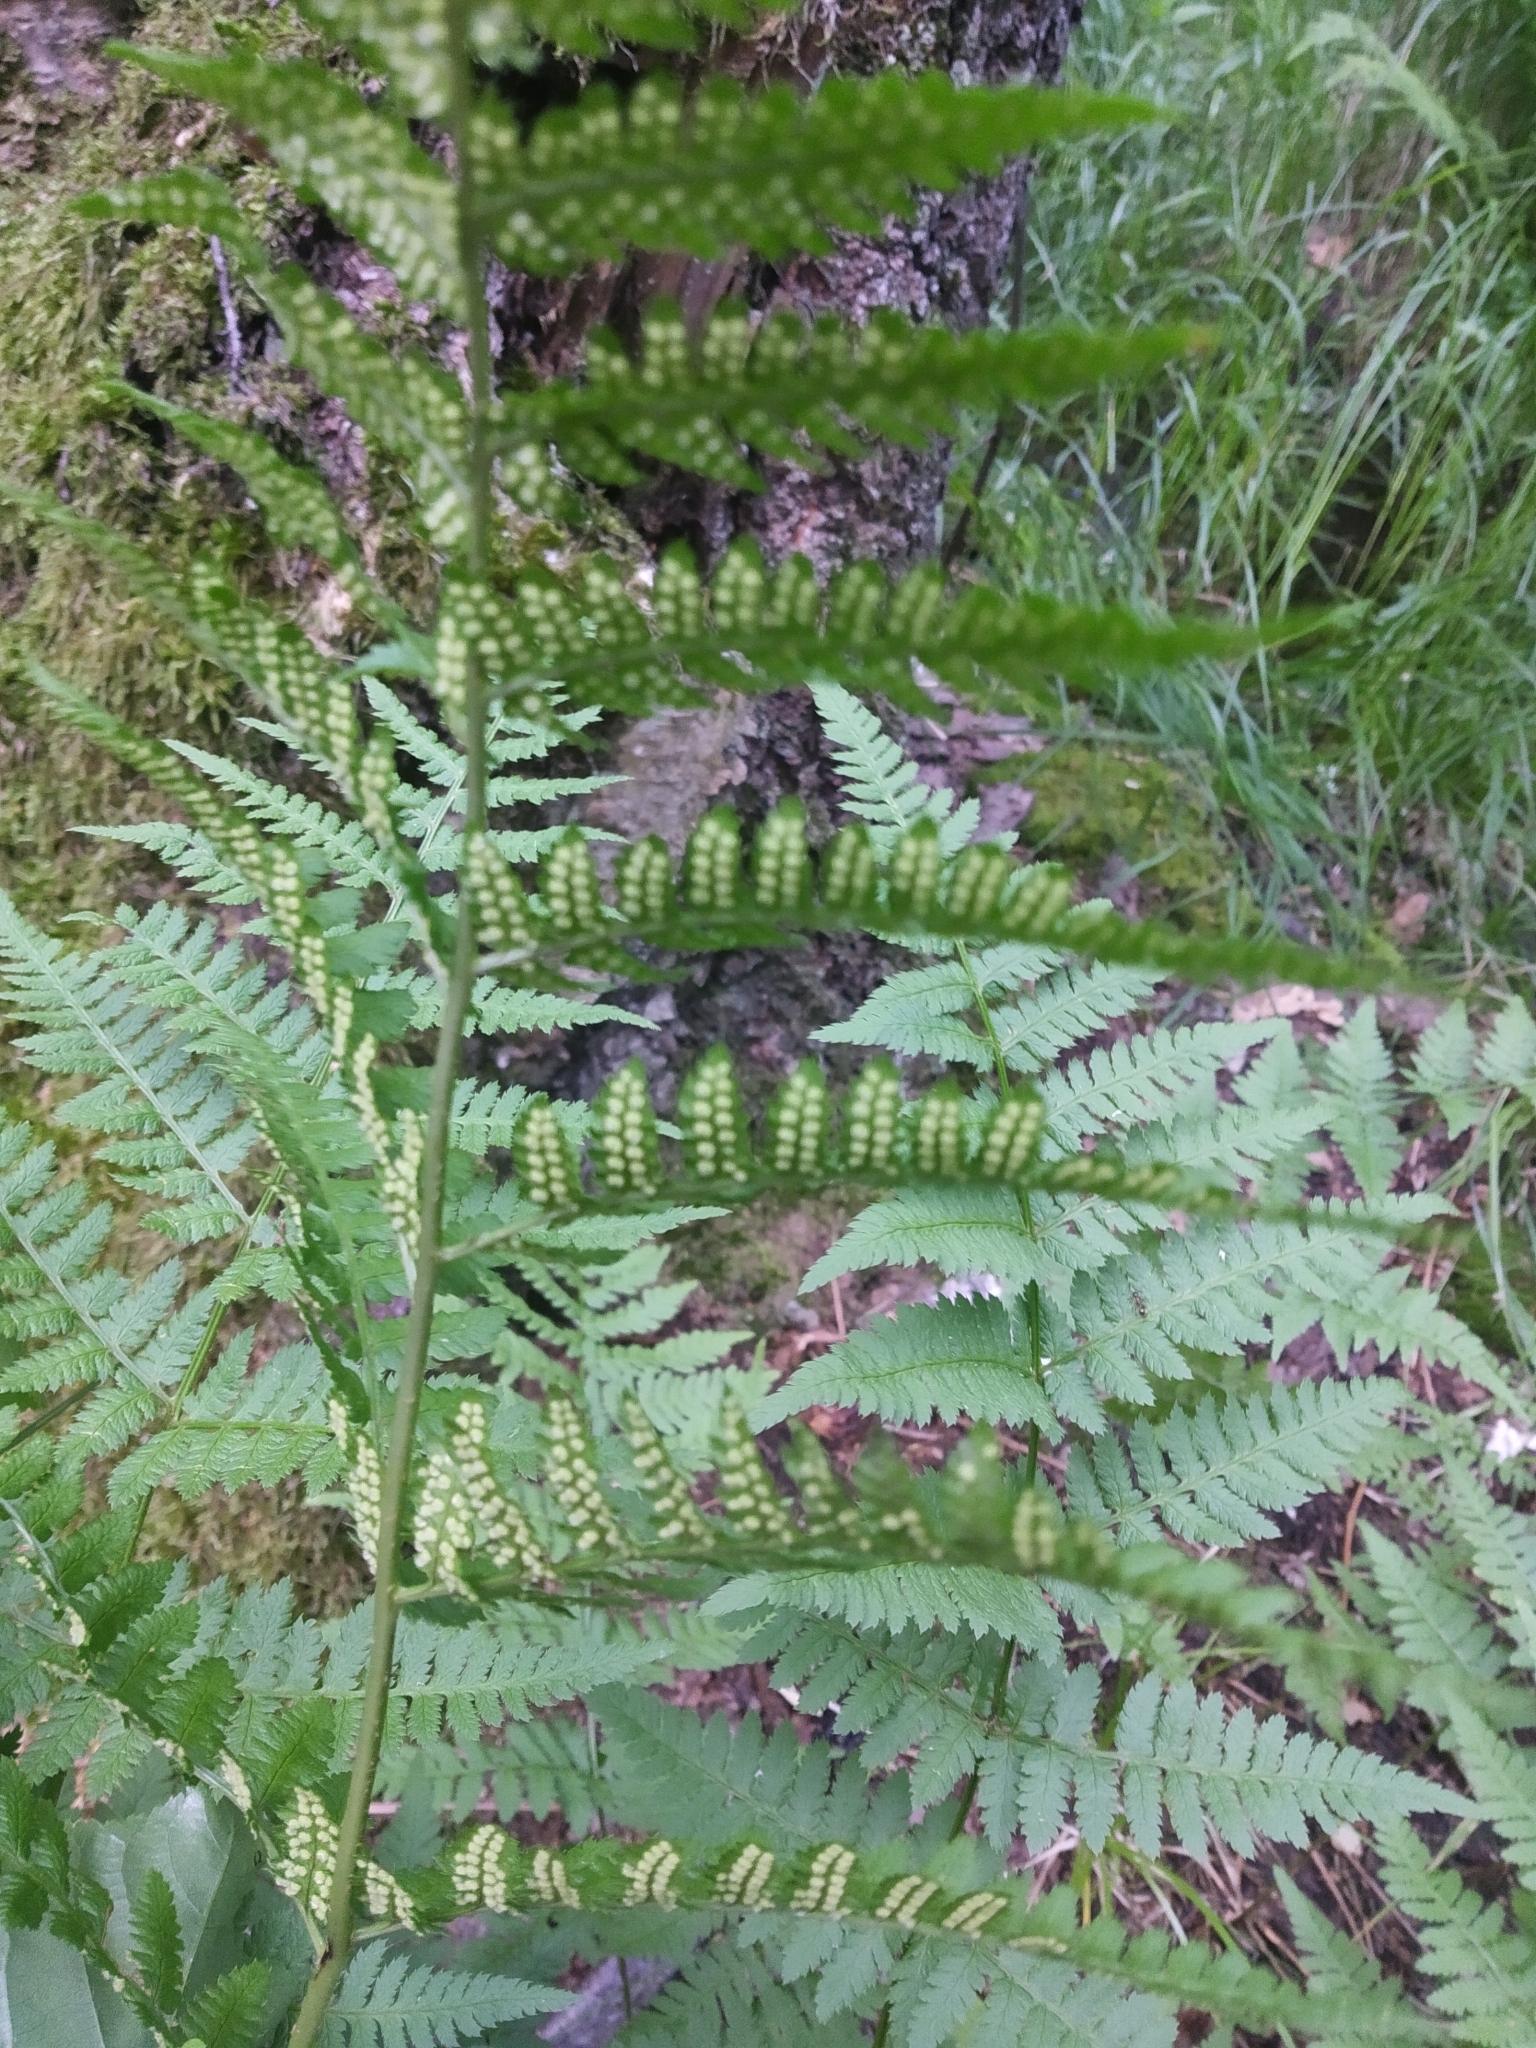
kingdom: Plantae
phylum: Tracheophyta
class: Polypodiopsida
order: Polypodiales
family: Dryopteridaceae
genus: Dryopteris
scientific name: Dryopteris carthusiana
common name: Narrow buckler-fern
